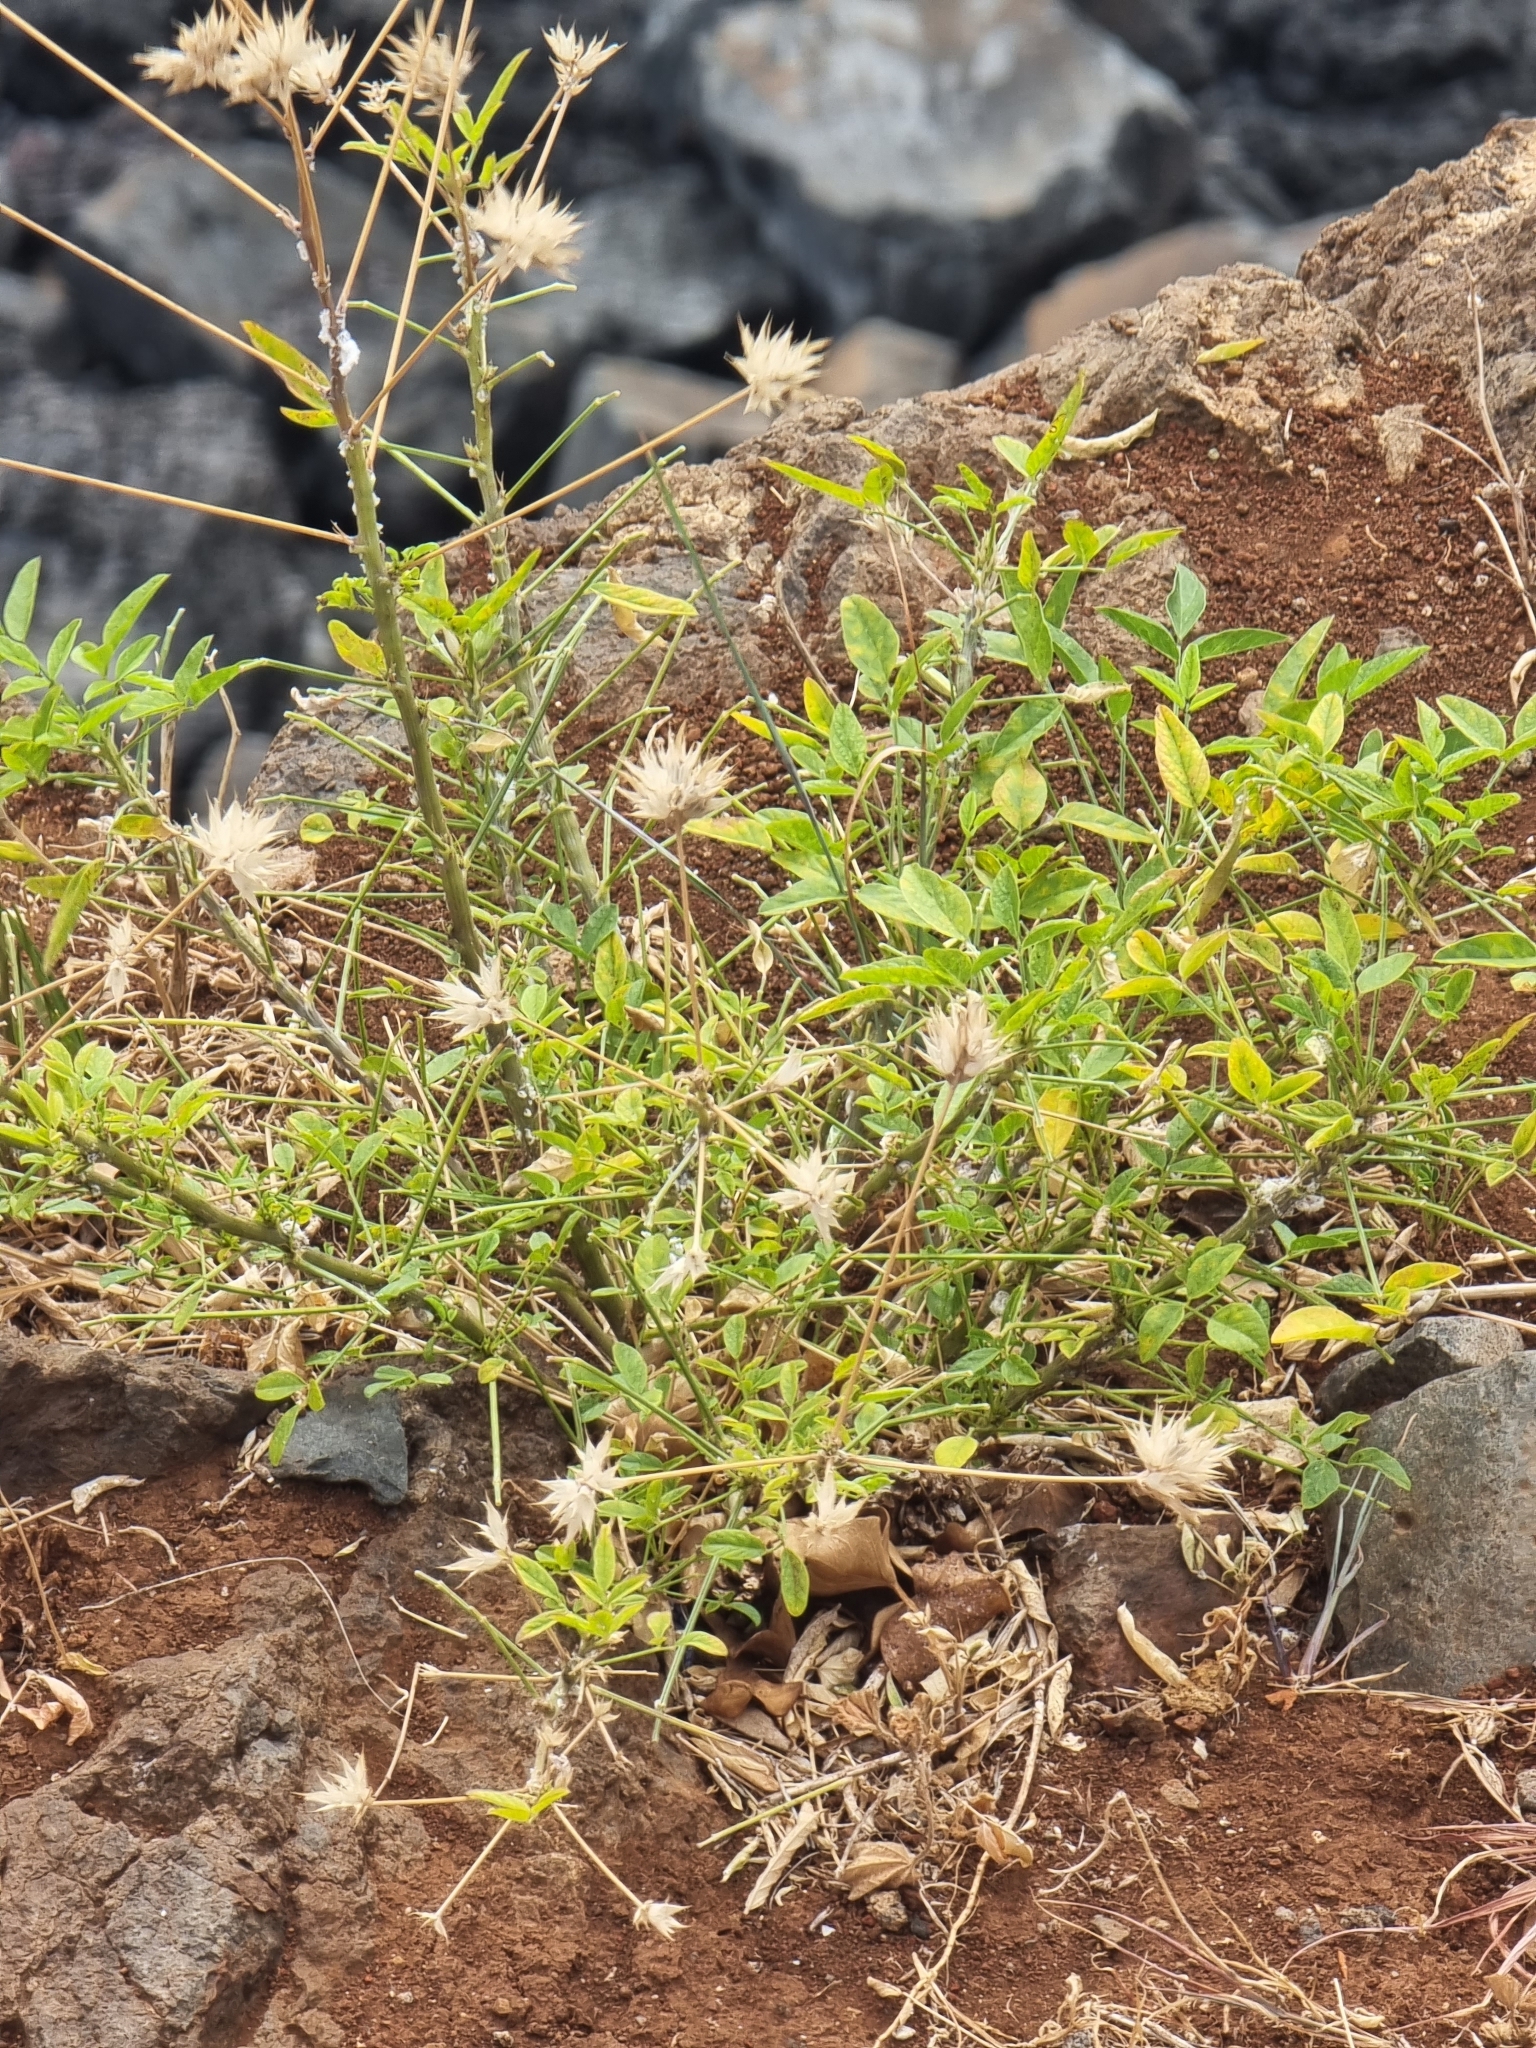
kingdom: Plantae
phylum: Tracheophyta
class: Magnoliopsida
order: Fabales
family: Fabaceae
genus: Bituminaria
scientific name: Bituminaria bituminosa
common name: Arabian pea
